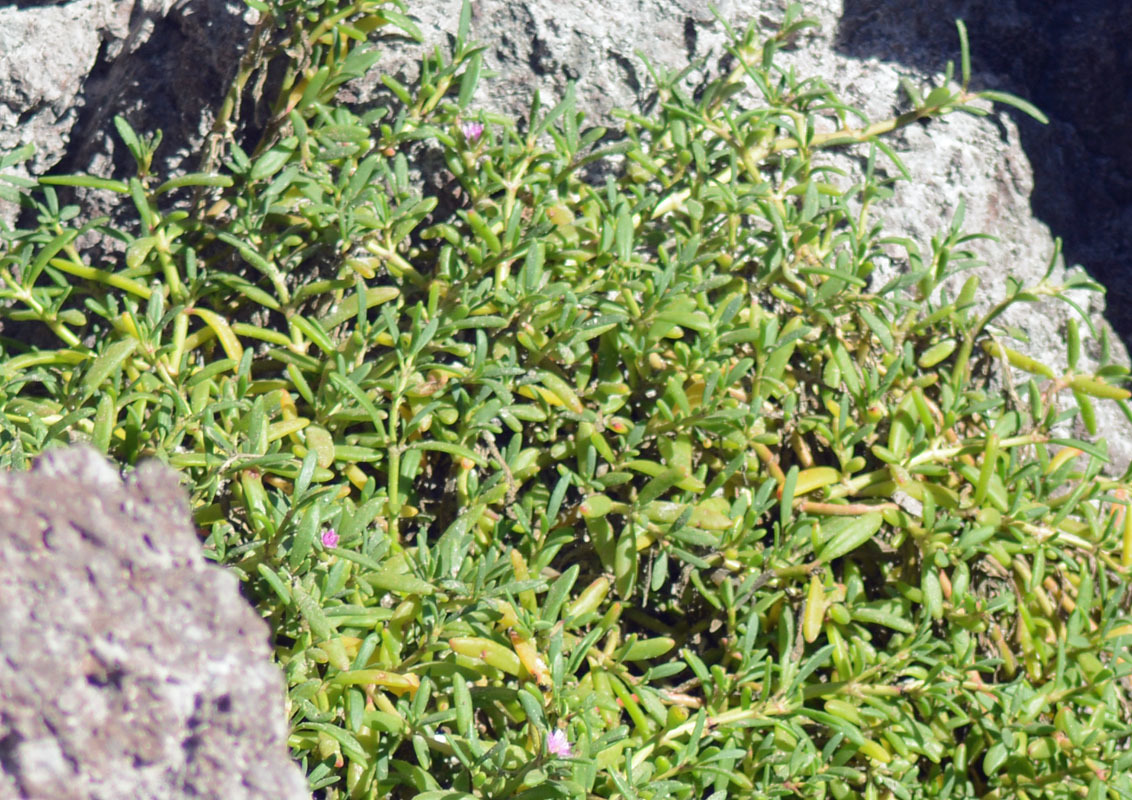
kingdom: Plantae
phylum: Tracheophyta
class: Magnoliopsida
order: Caryophyllales
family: Aizoaceae
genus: Sesuvium
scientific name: Sesuvium portulacastrum
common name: Sea-purslane
